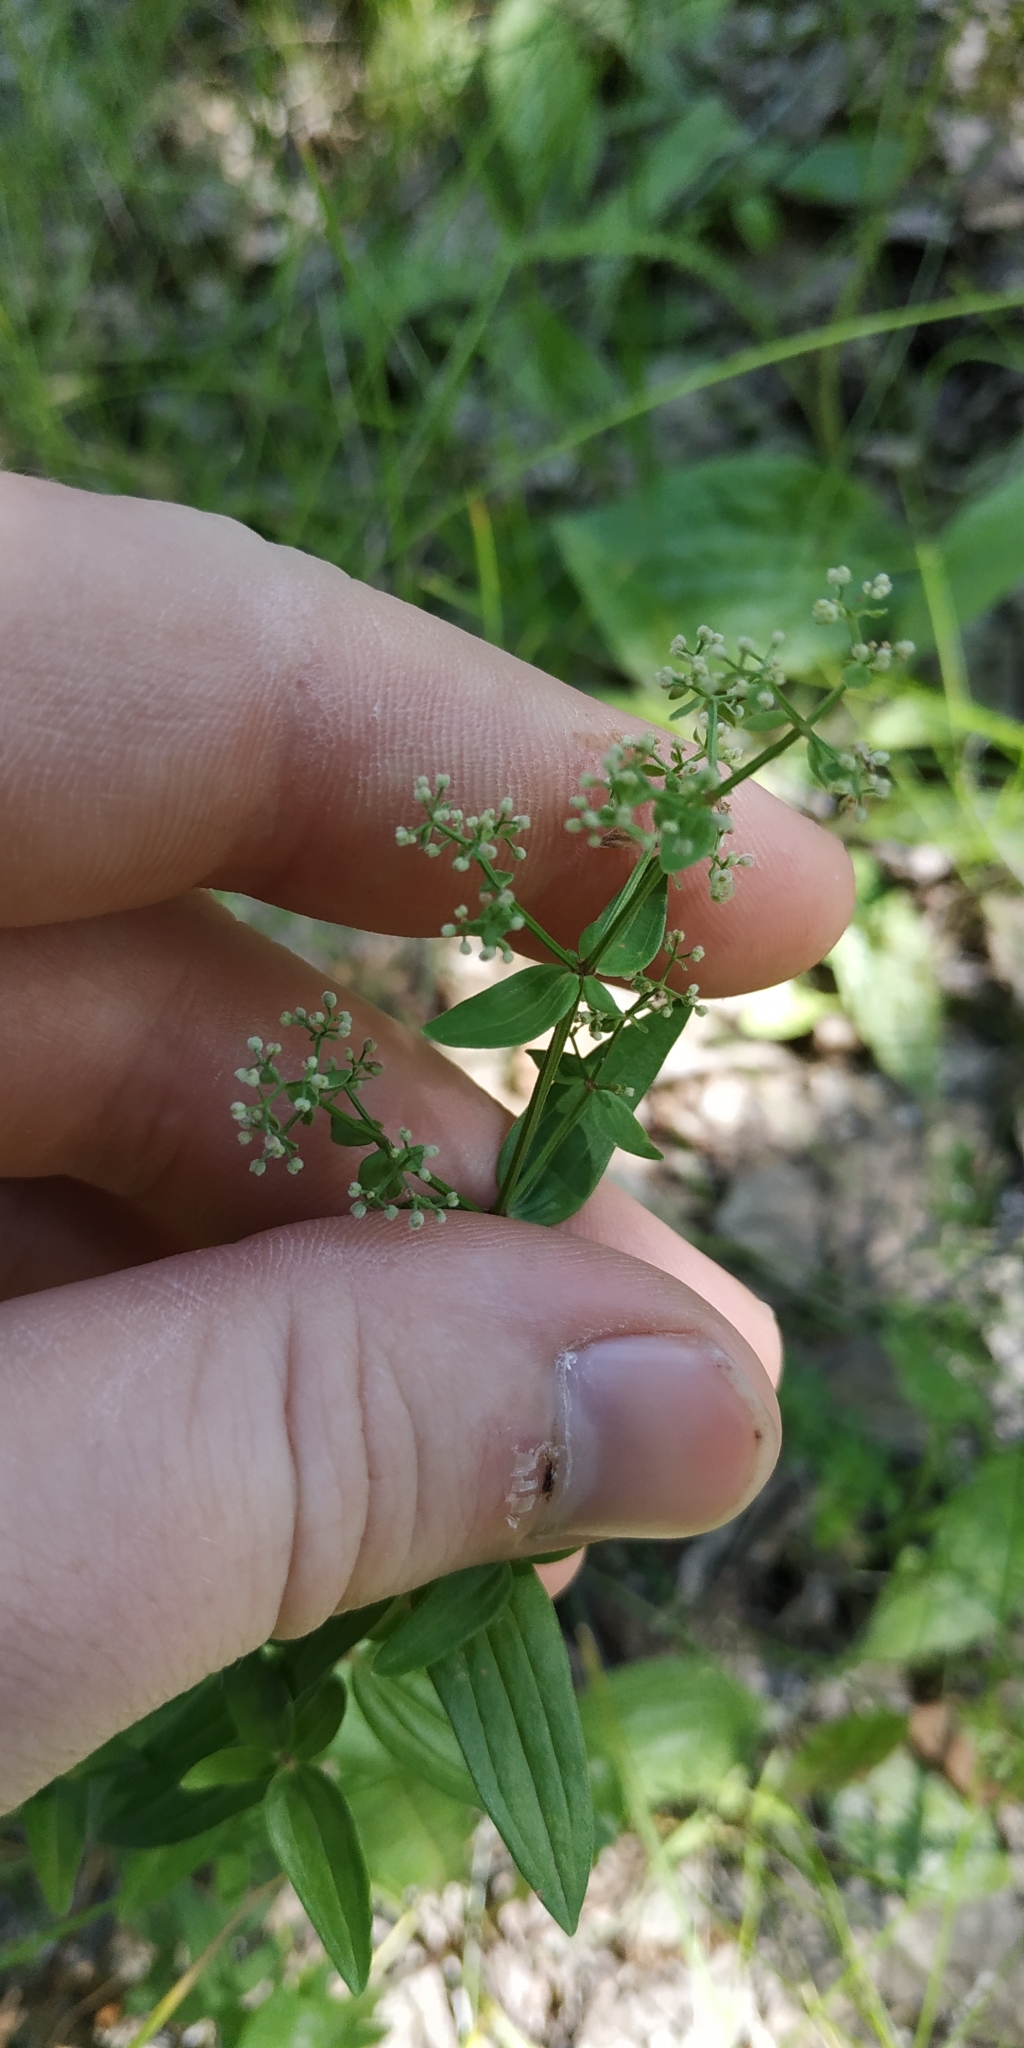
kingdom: Plantae
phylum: Tracheophyta
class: Magnoliopsida
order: Gentianales
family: Rubiaceae
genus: Galium
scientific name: Galium boreale
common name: Northern bedstraw
